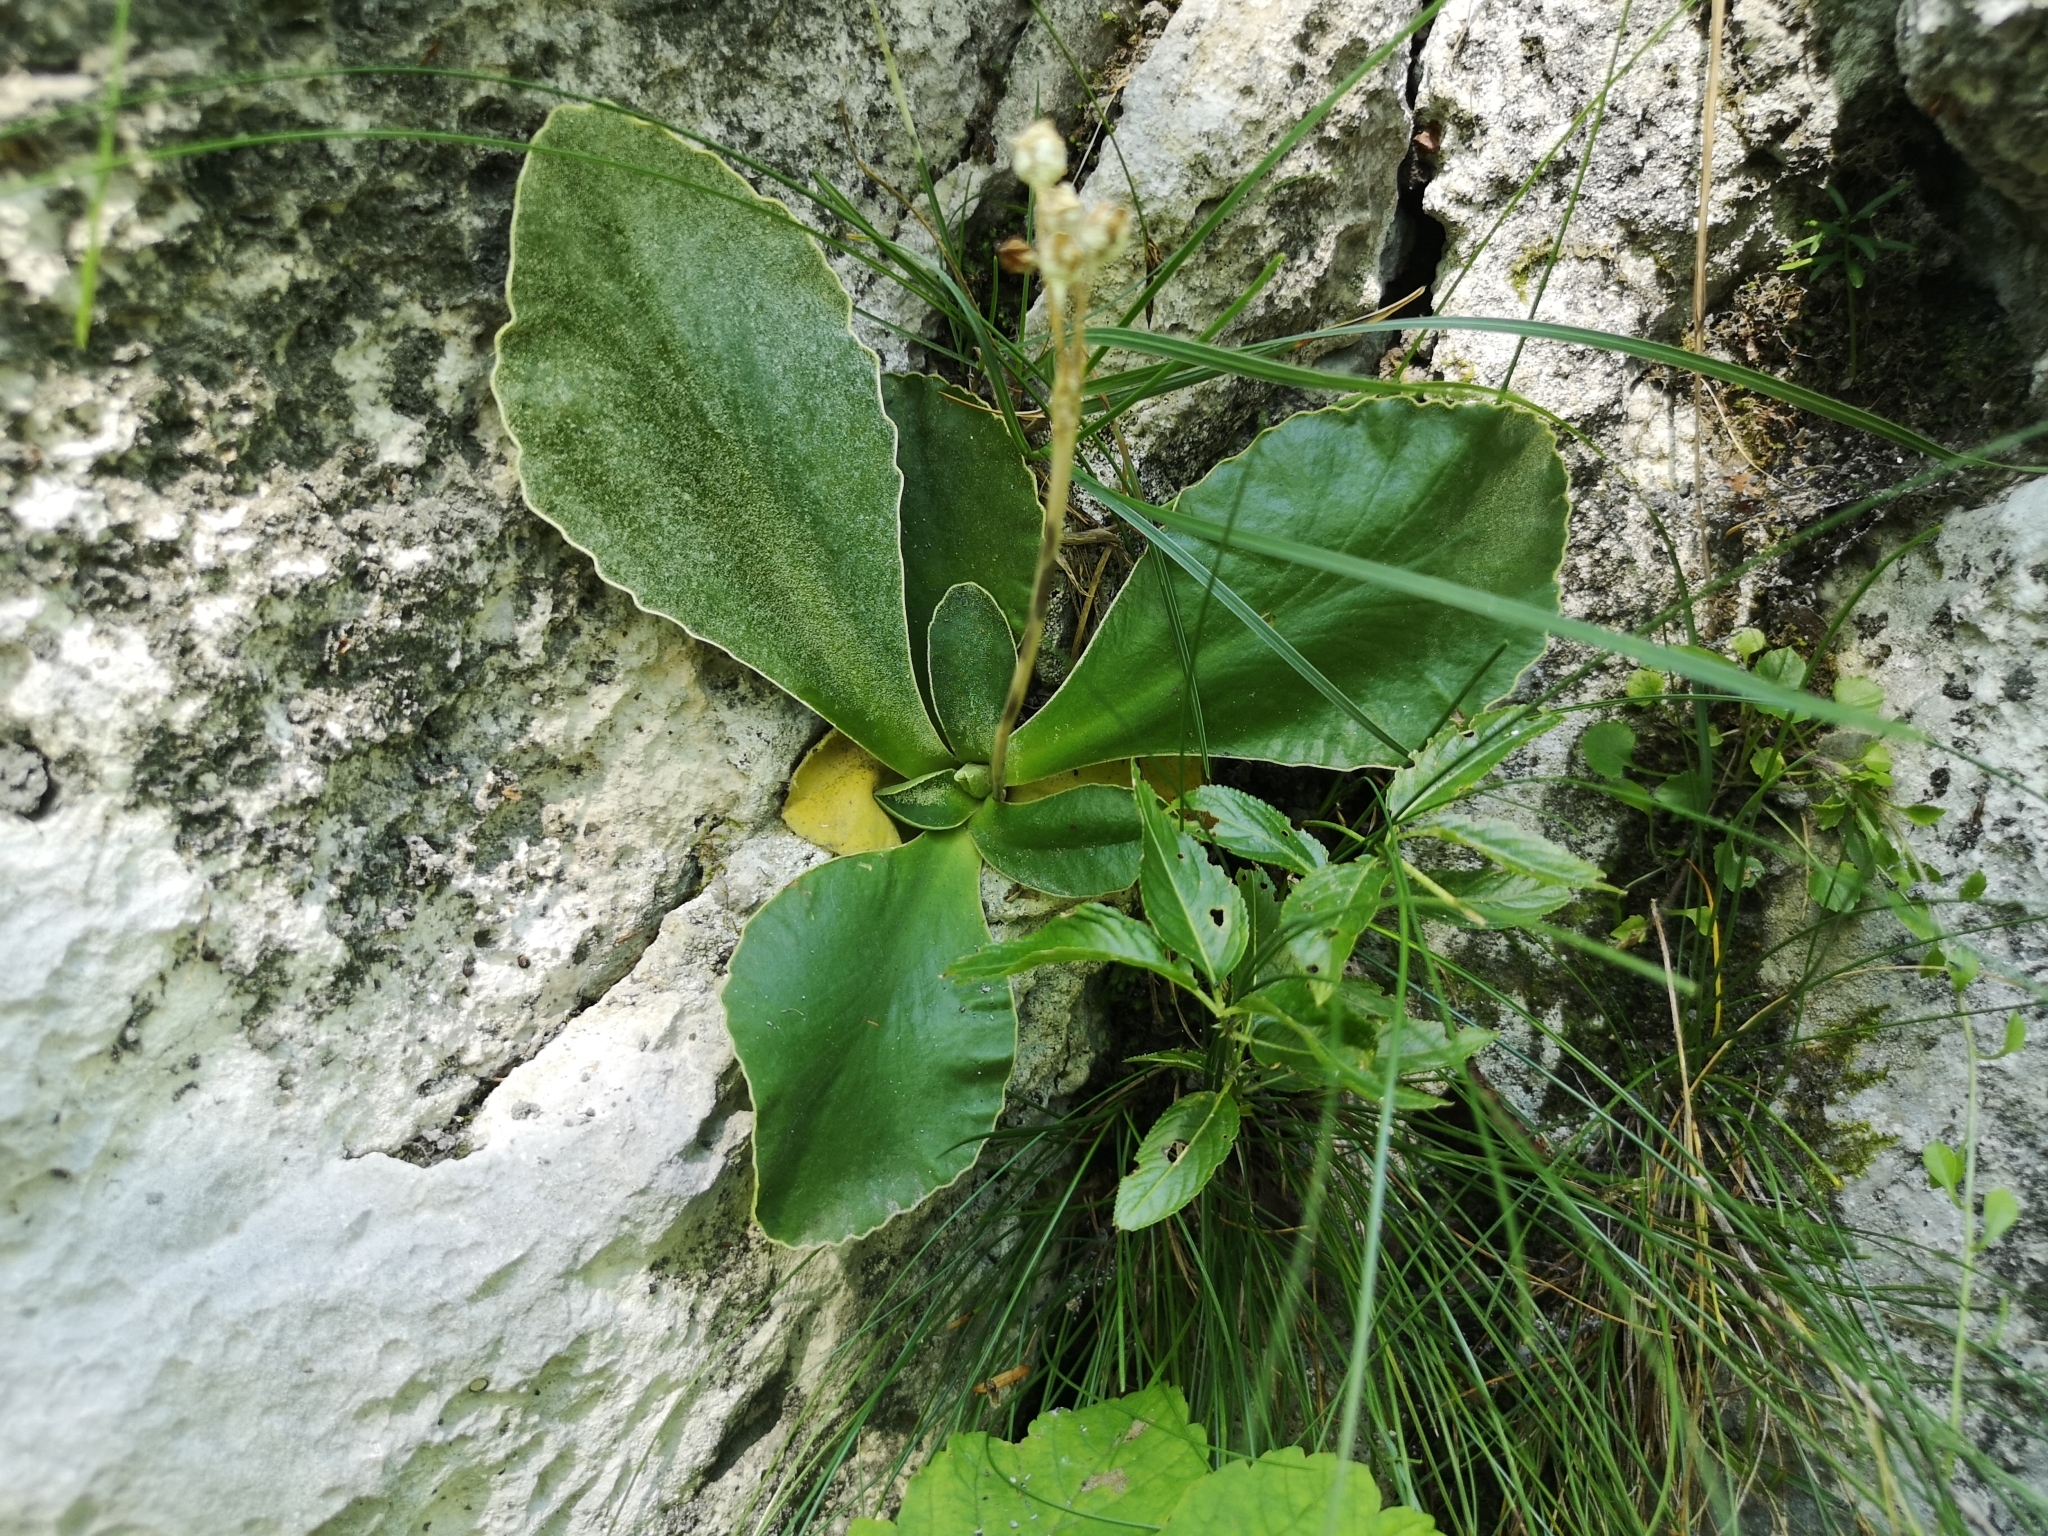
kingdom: Plantae
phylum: Tracheophyta
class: Magnoliopsida
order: Ericales
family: Primulaceae
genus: Primula
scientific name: Primula auricula
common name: Auricula
